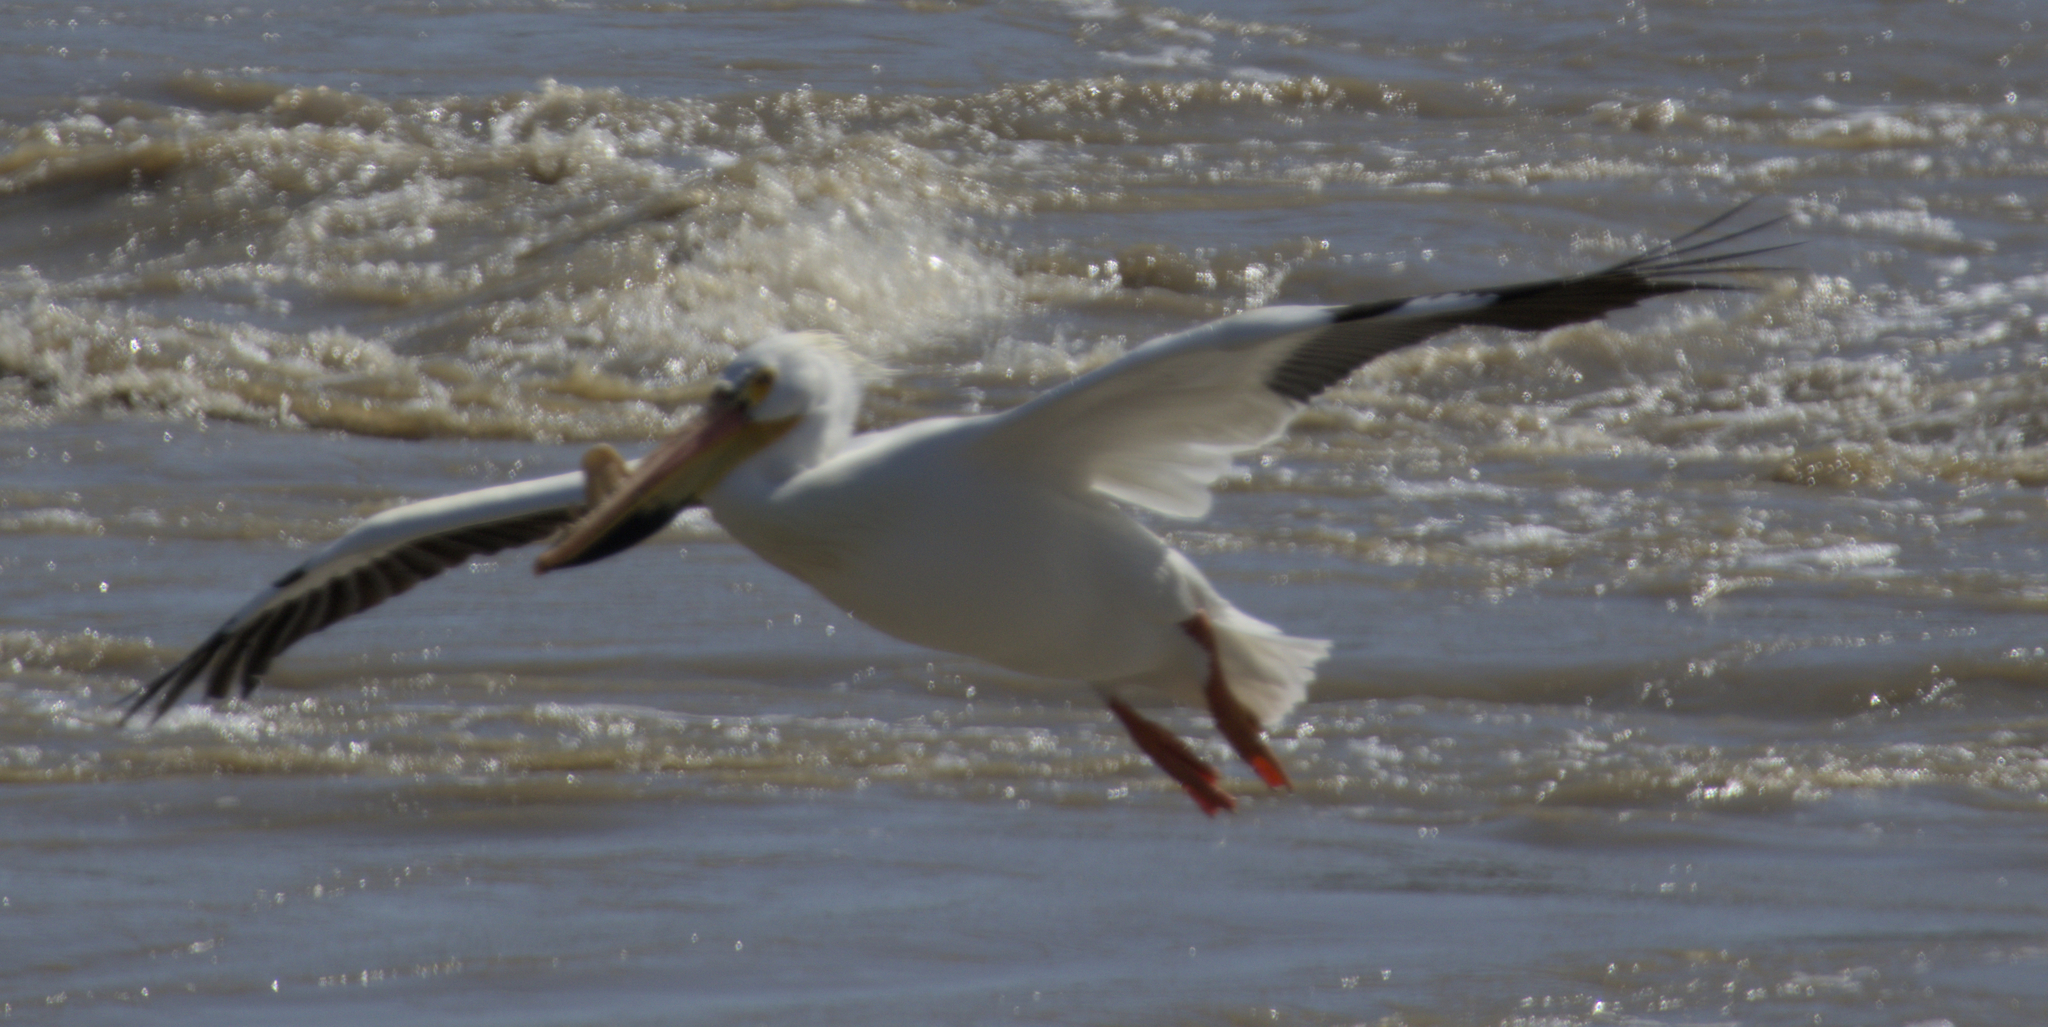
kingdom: Animalia
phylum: Chordata
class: Aves
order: Pelecaniformes
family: Pelecanidae
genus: Pelecanus
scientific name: Pelecanus erythrorhynchos
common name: American white pelican
